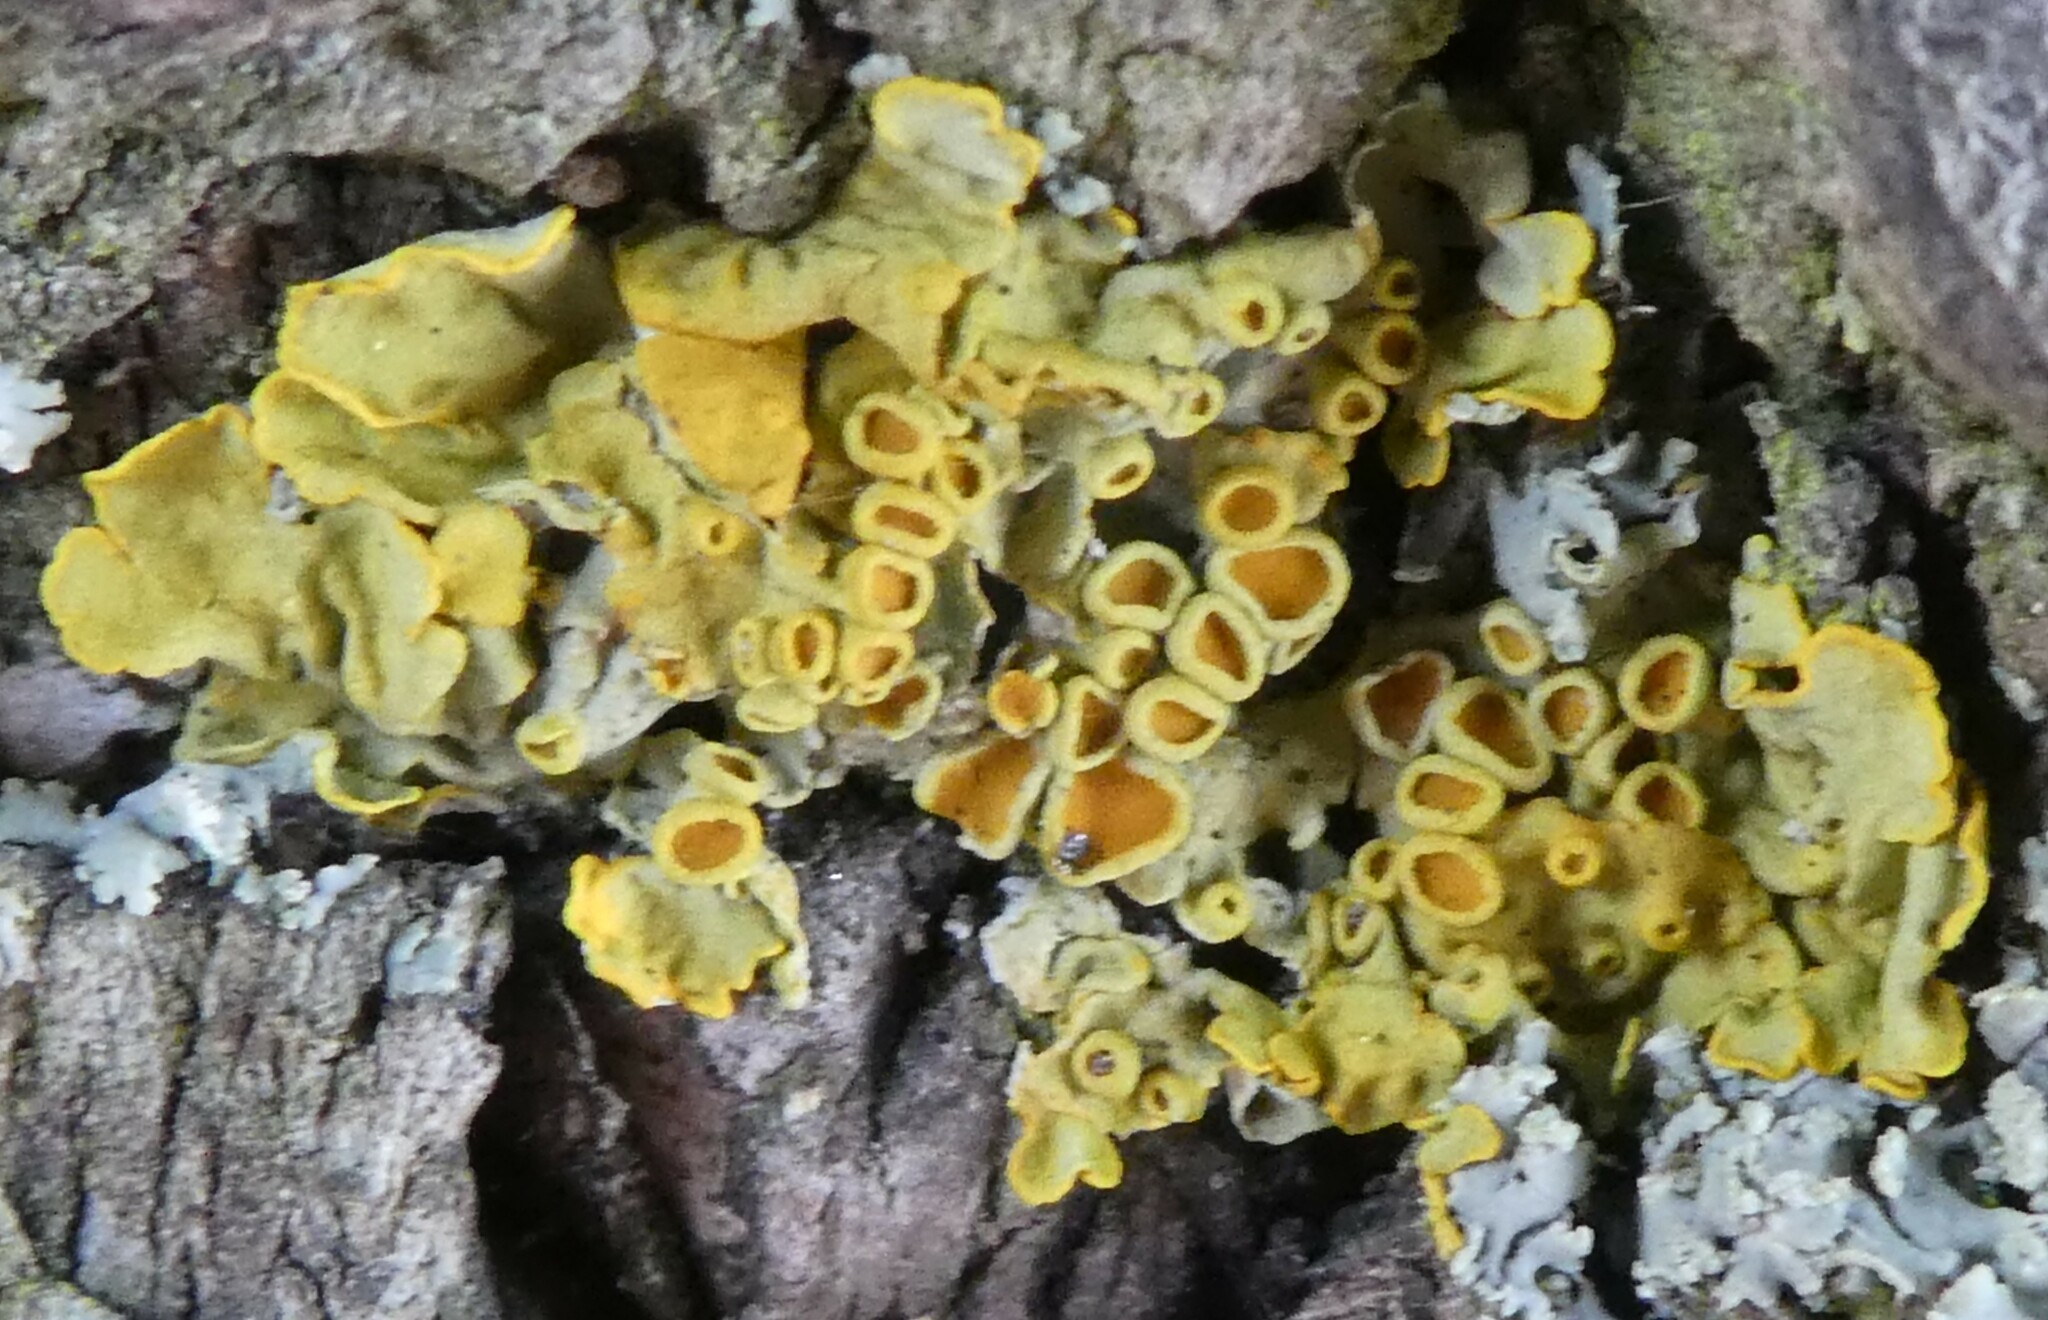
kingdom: Fungi
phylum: Ascomycota
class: Lecanoromycetes
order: Teloschistales
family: Teloschistaceae
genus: Xanthoria
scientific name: Xanthoria parietina
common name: Common orange lichen
